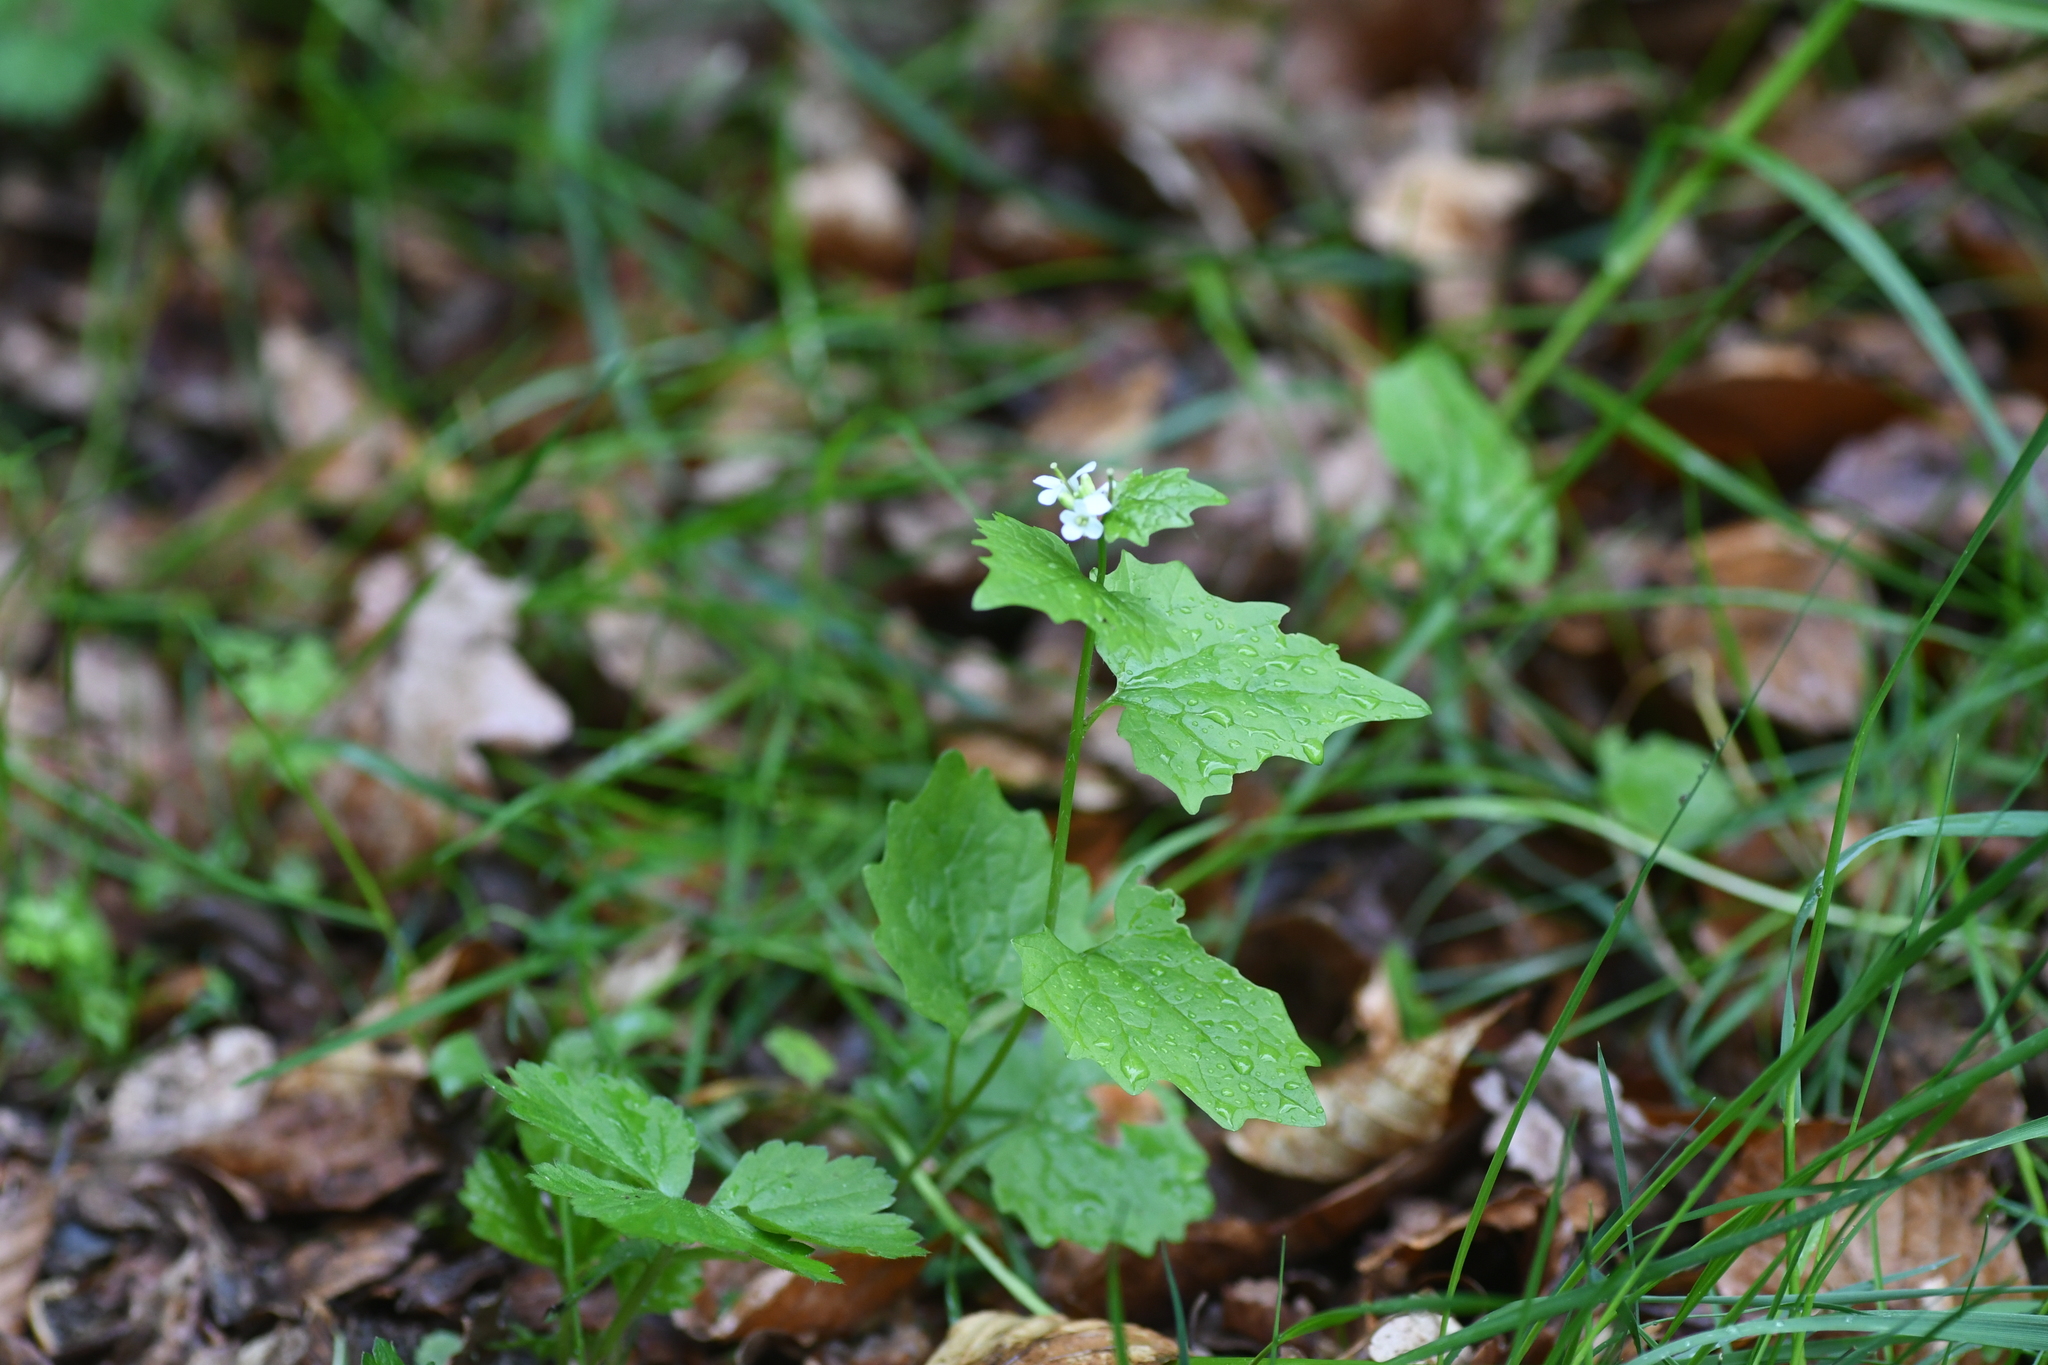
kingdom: Plantae
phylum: Tracheophyta
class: Magnoliopsida
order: Brassicales
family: Brassicaceae
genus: Alliaria
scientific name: Alliaria petiolata
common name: Garlic mustard
